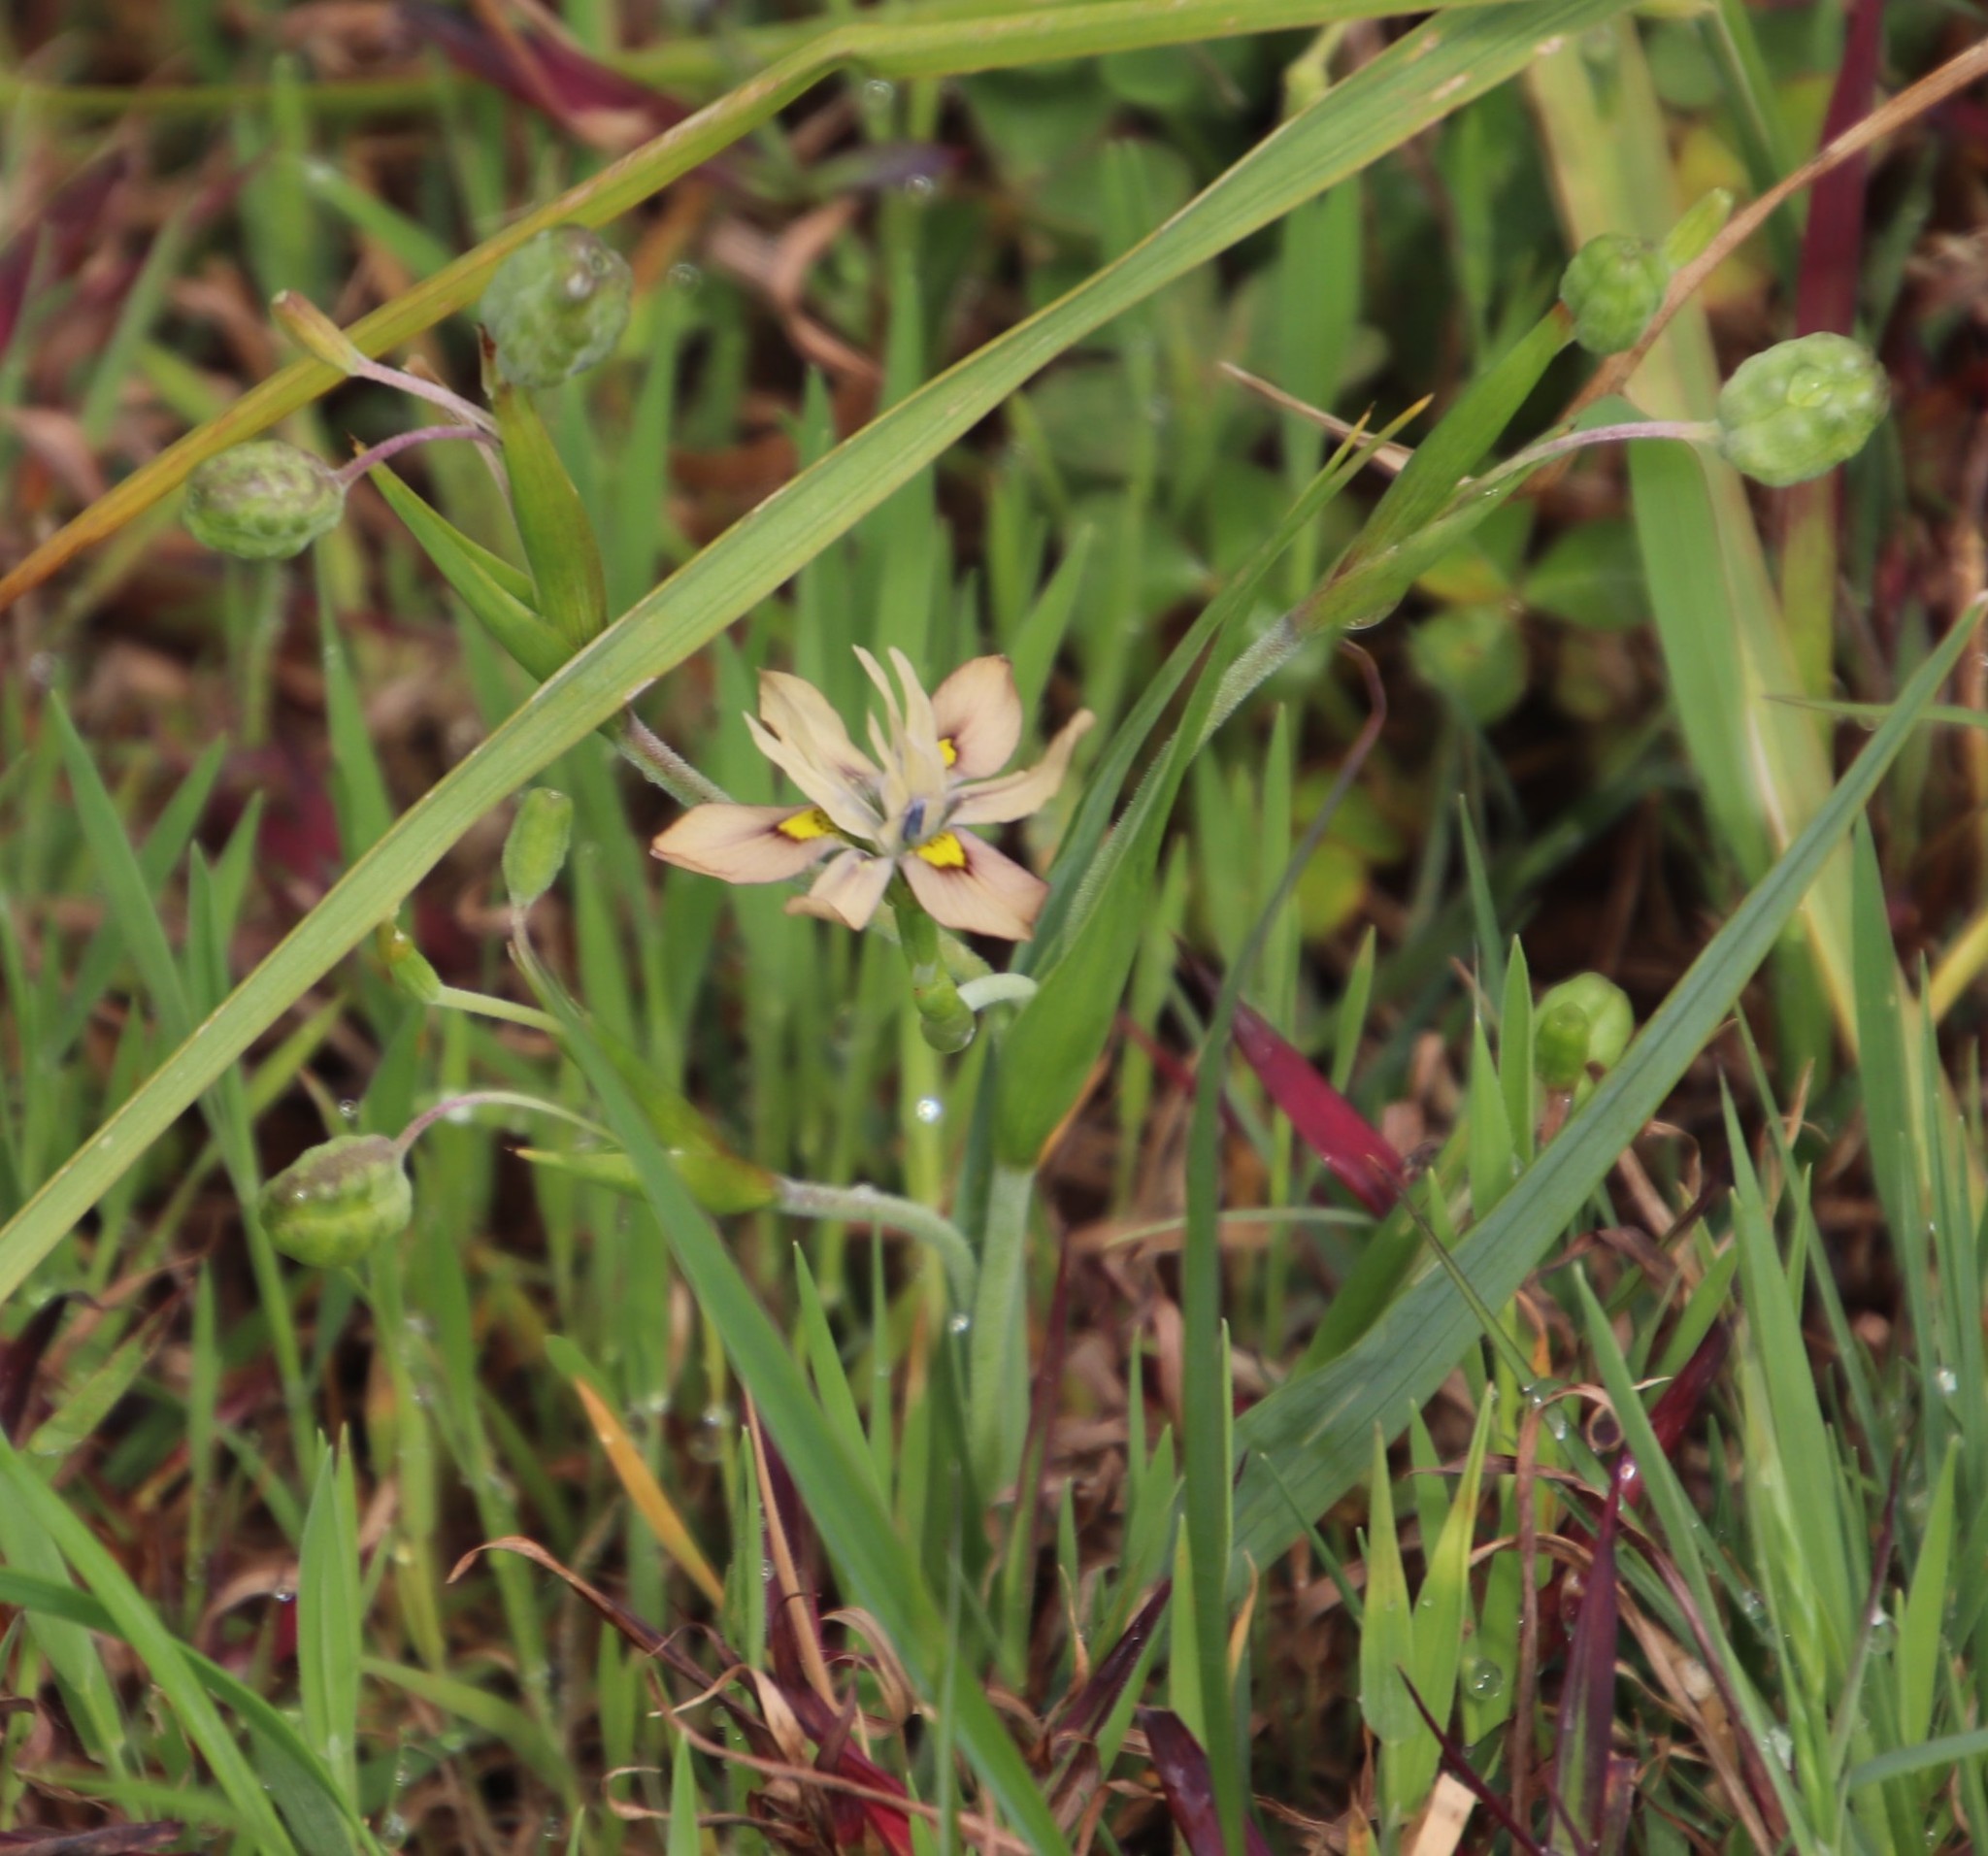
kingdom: Plantae
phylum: Tracheophyta
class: Liliopsida
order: Asparagales
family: Iridaceae
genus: Moraea
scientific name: Moraea vegeta
